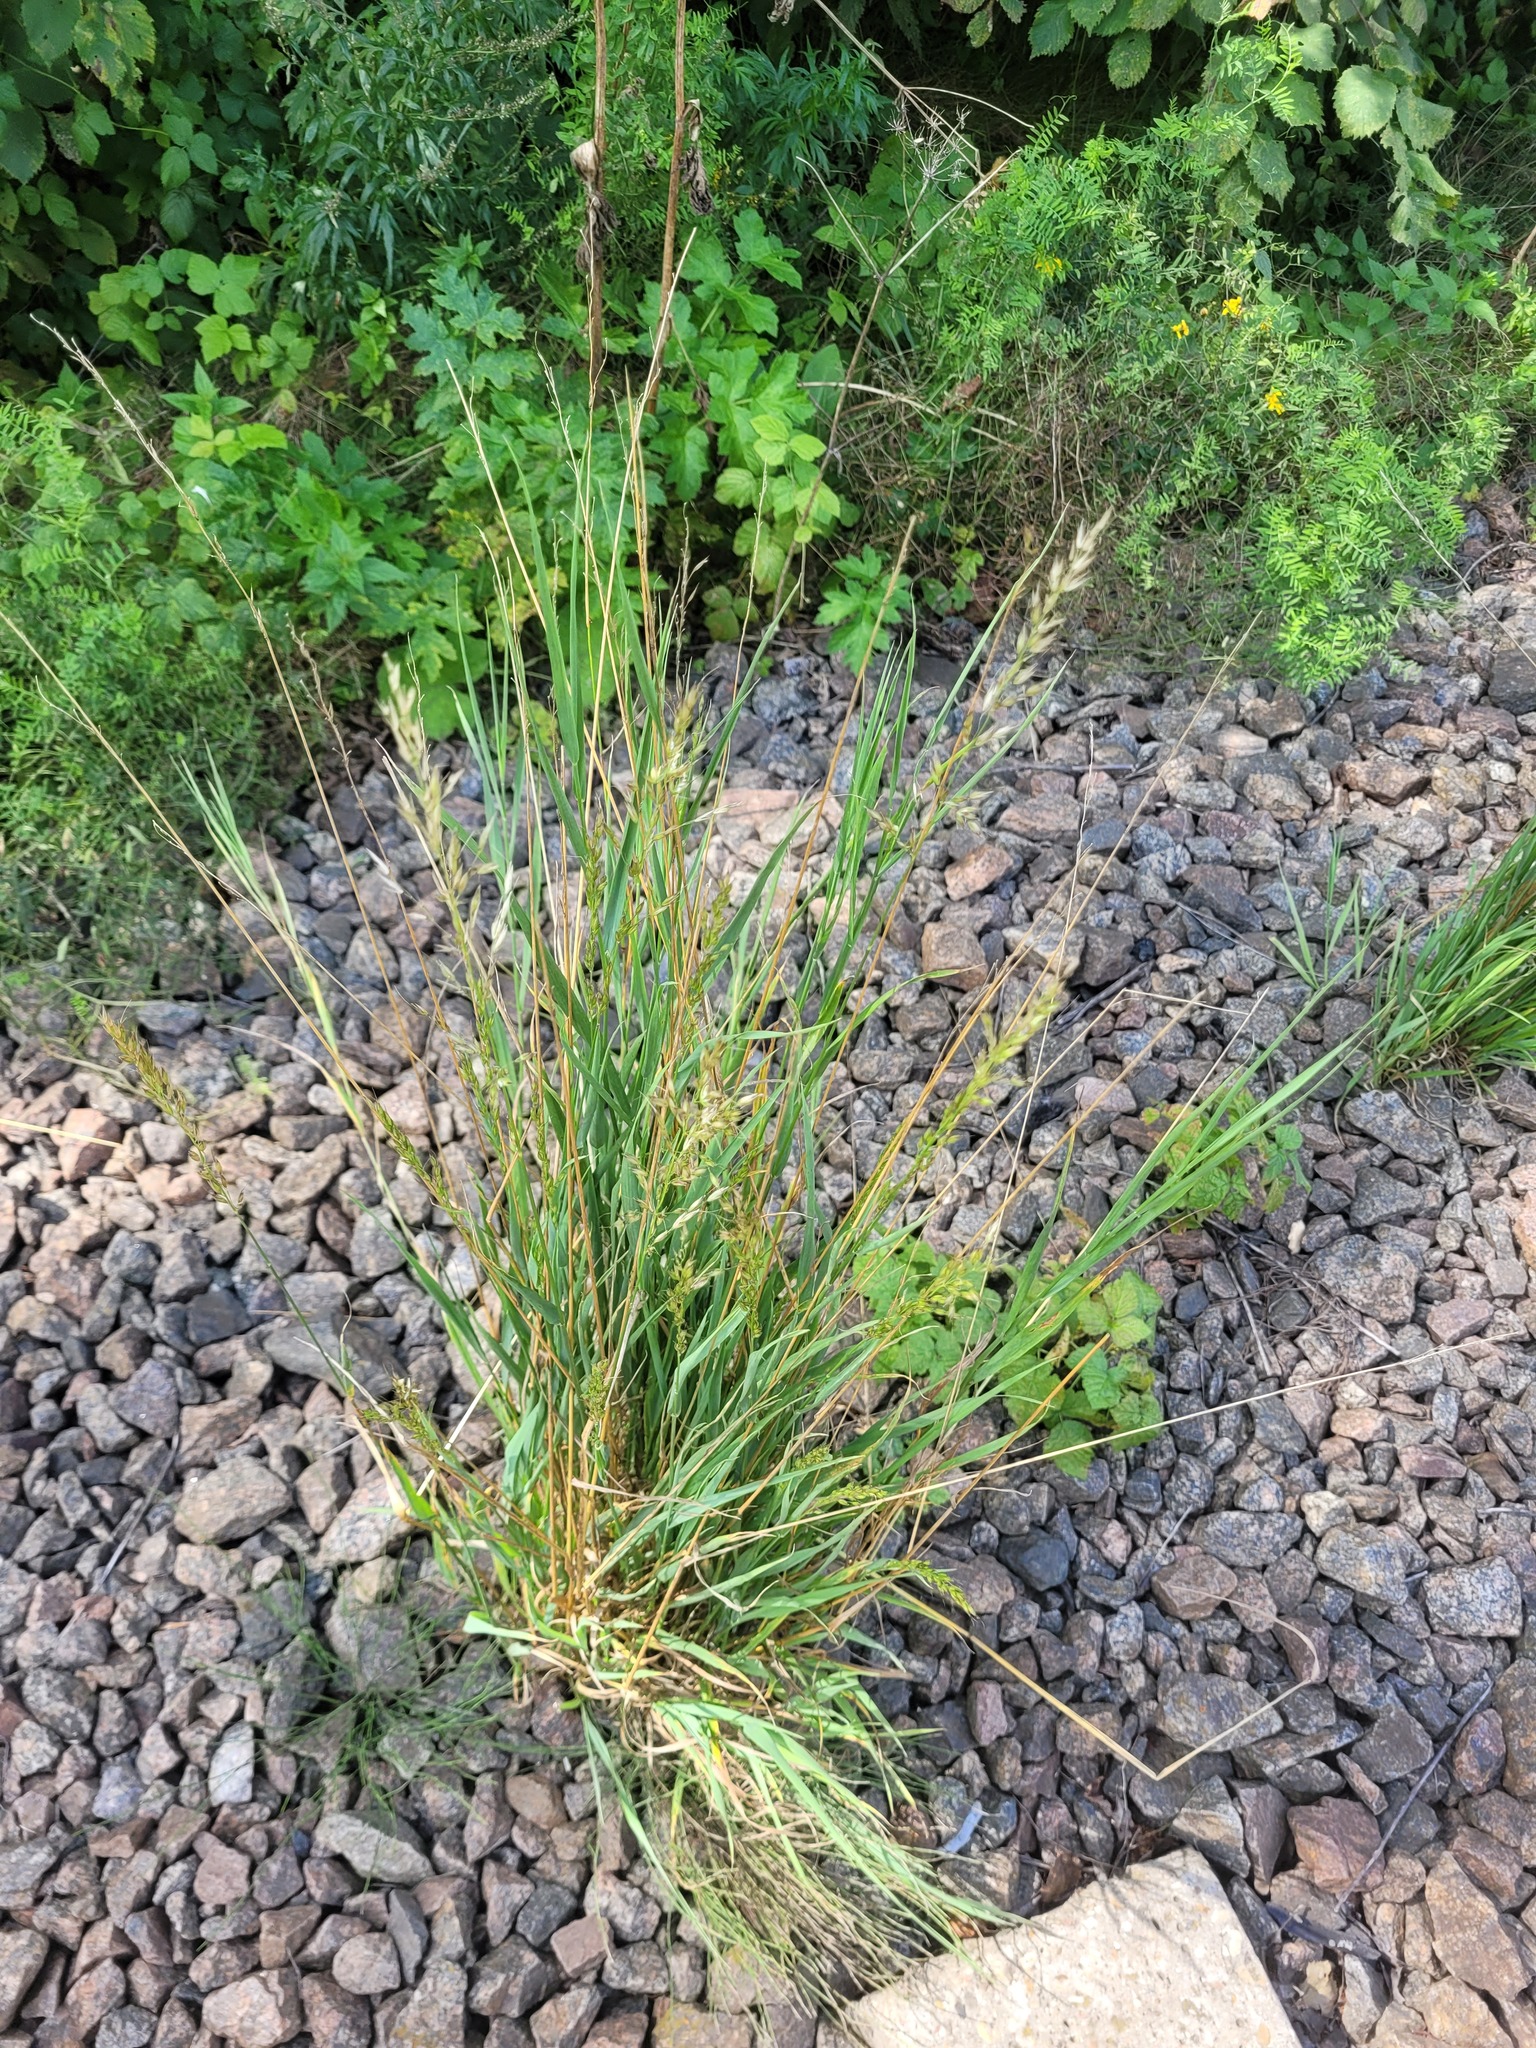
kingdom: Plantae
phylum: Tracheophyta
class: Liliopsida
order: Poales
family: Poaceae
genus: Arrhenatherum
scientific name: Arrhenatherum elatius
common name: Tall oatgrass
